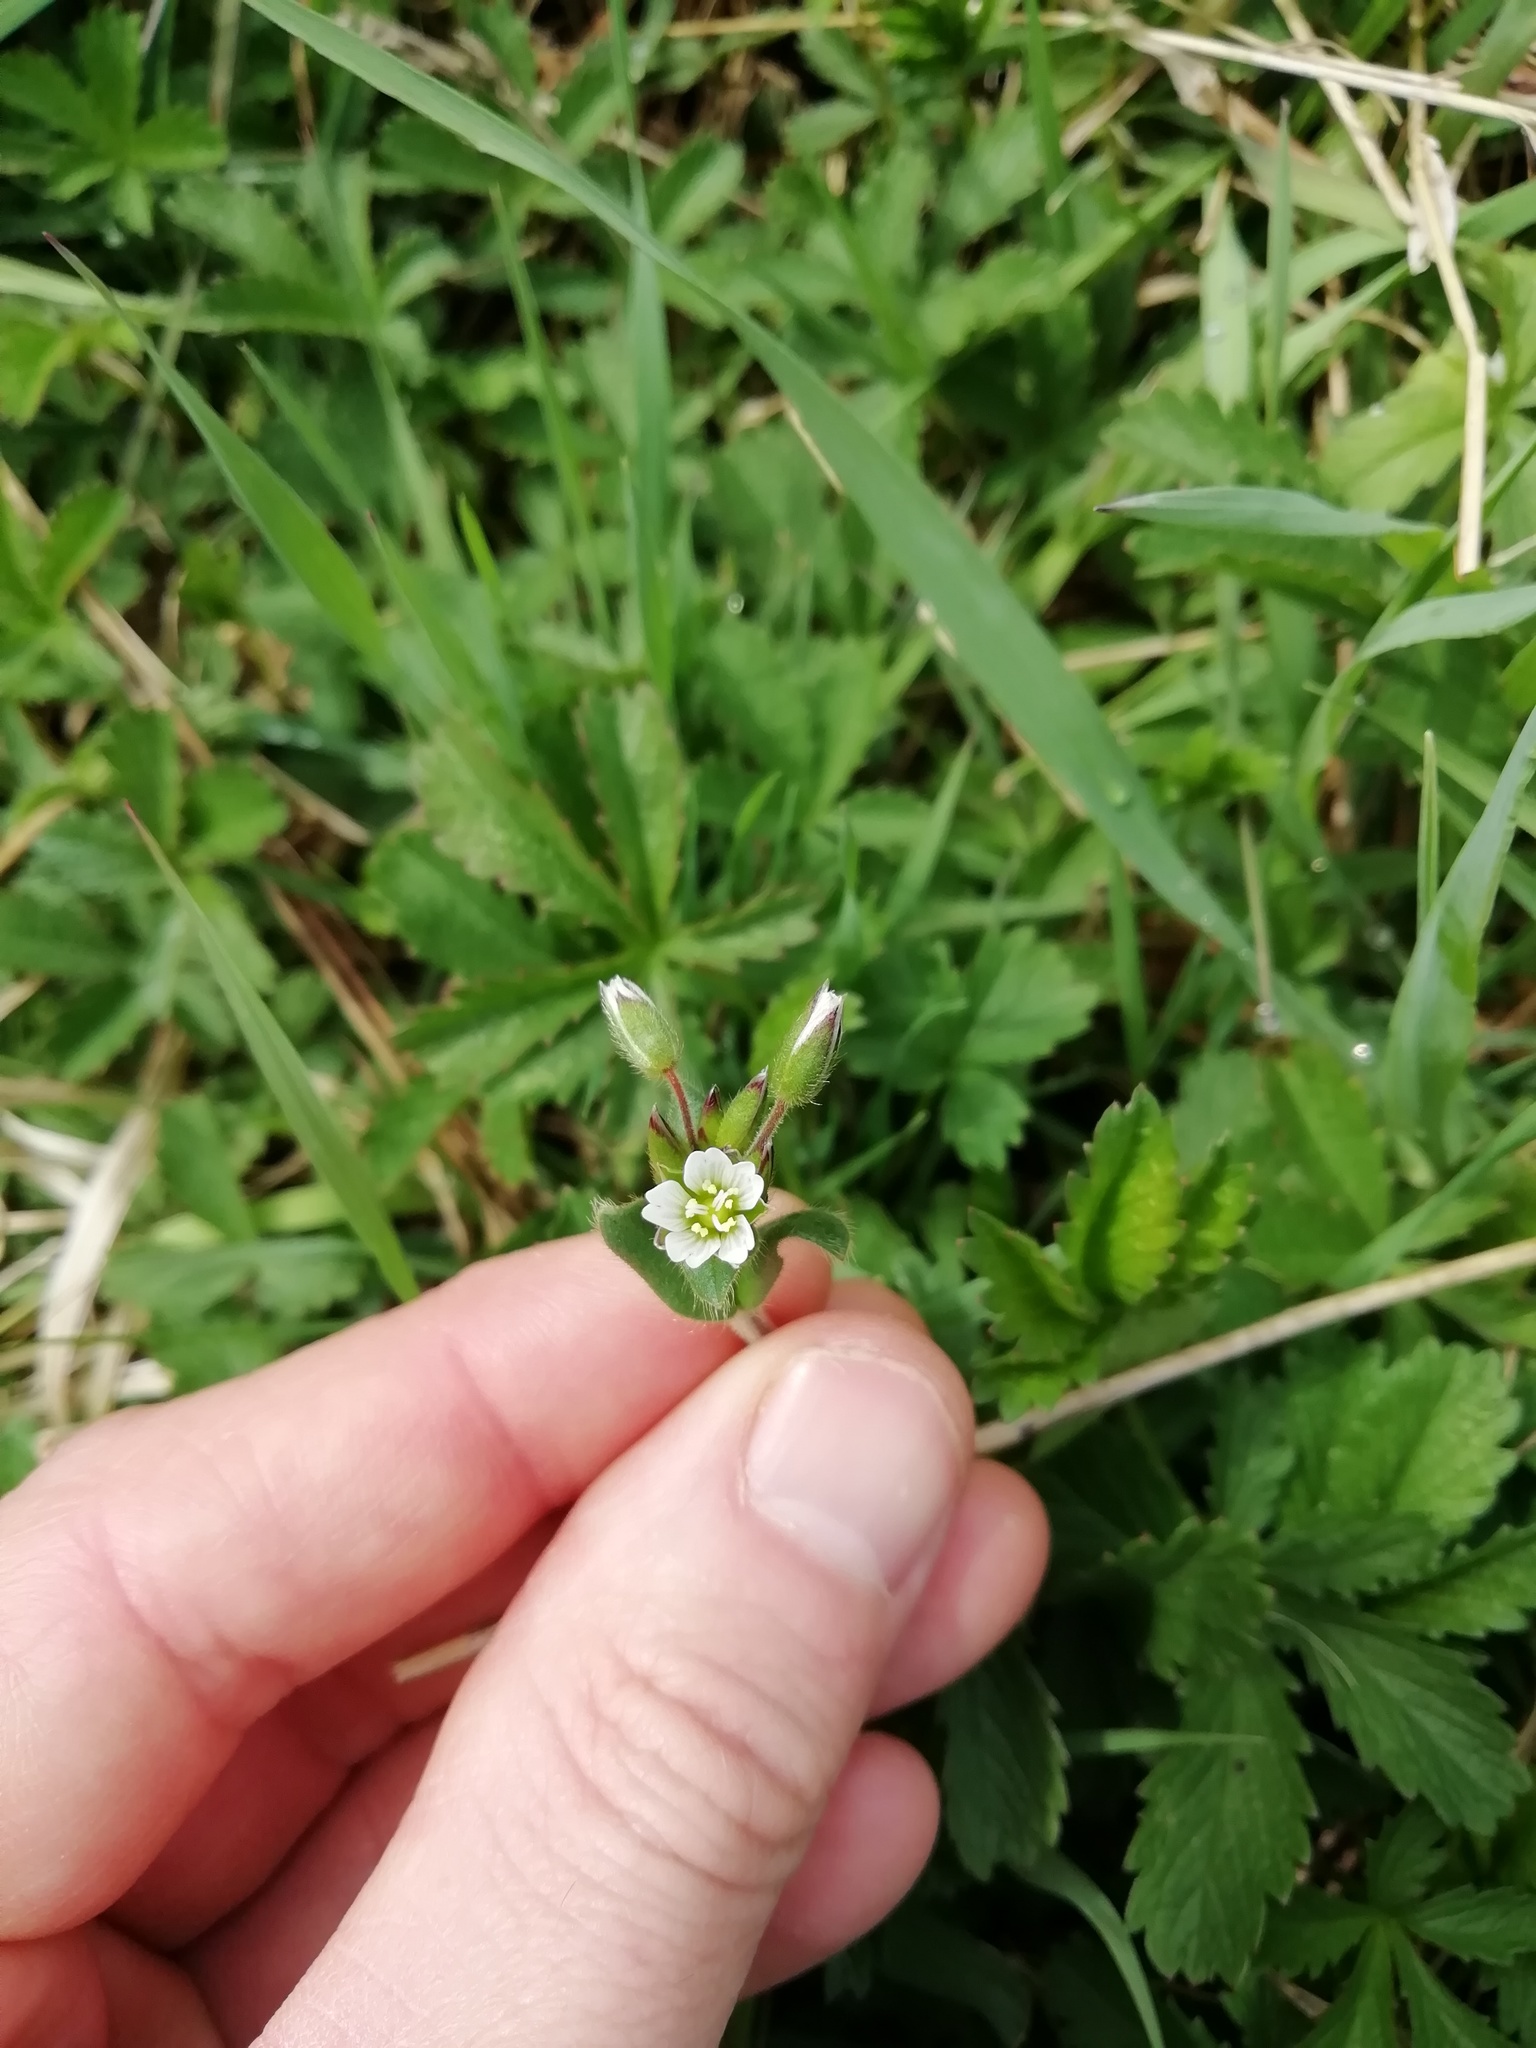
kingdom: Plantae
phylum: Tracheophyta
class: Magnoliopsida
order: Caryophyllales
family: Caryophyllaceae
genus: Cerastium
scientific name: Cerastium fontanum
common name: Common mouse-ear
